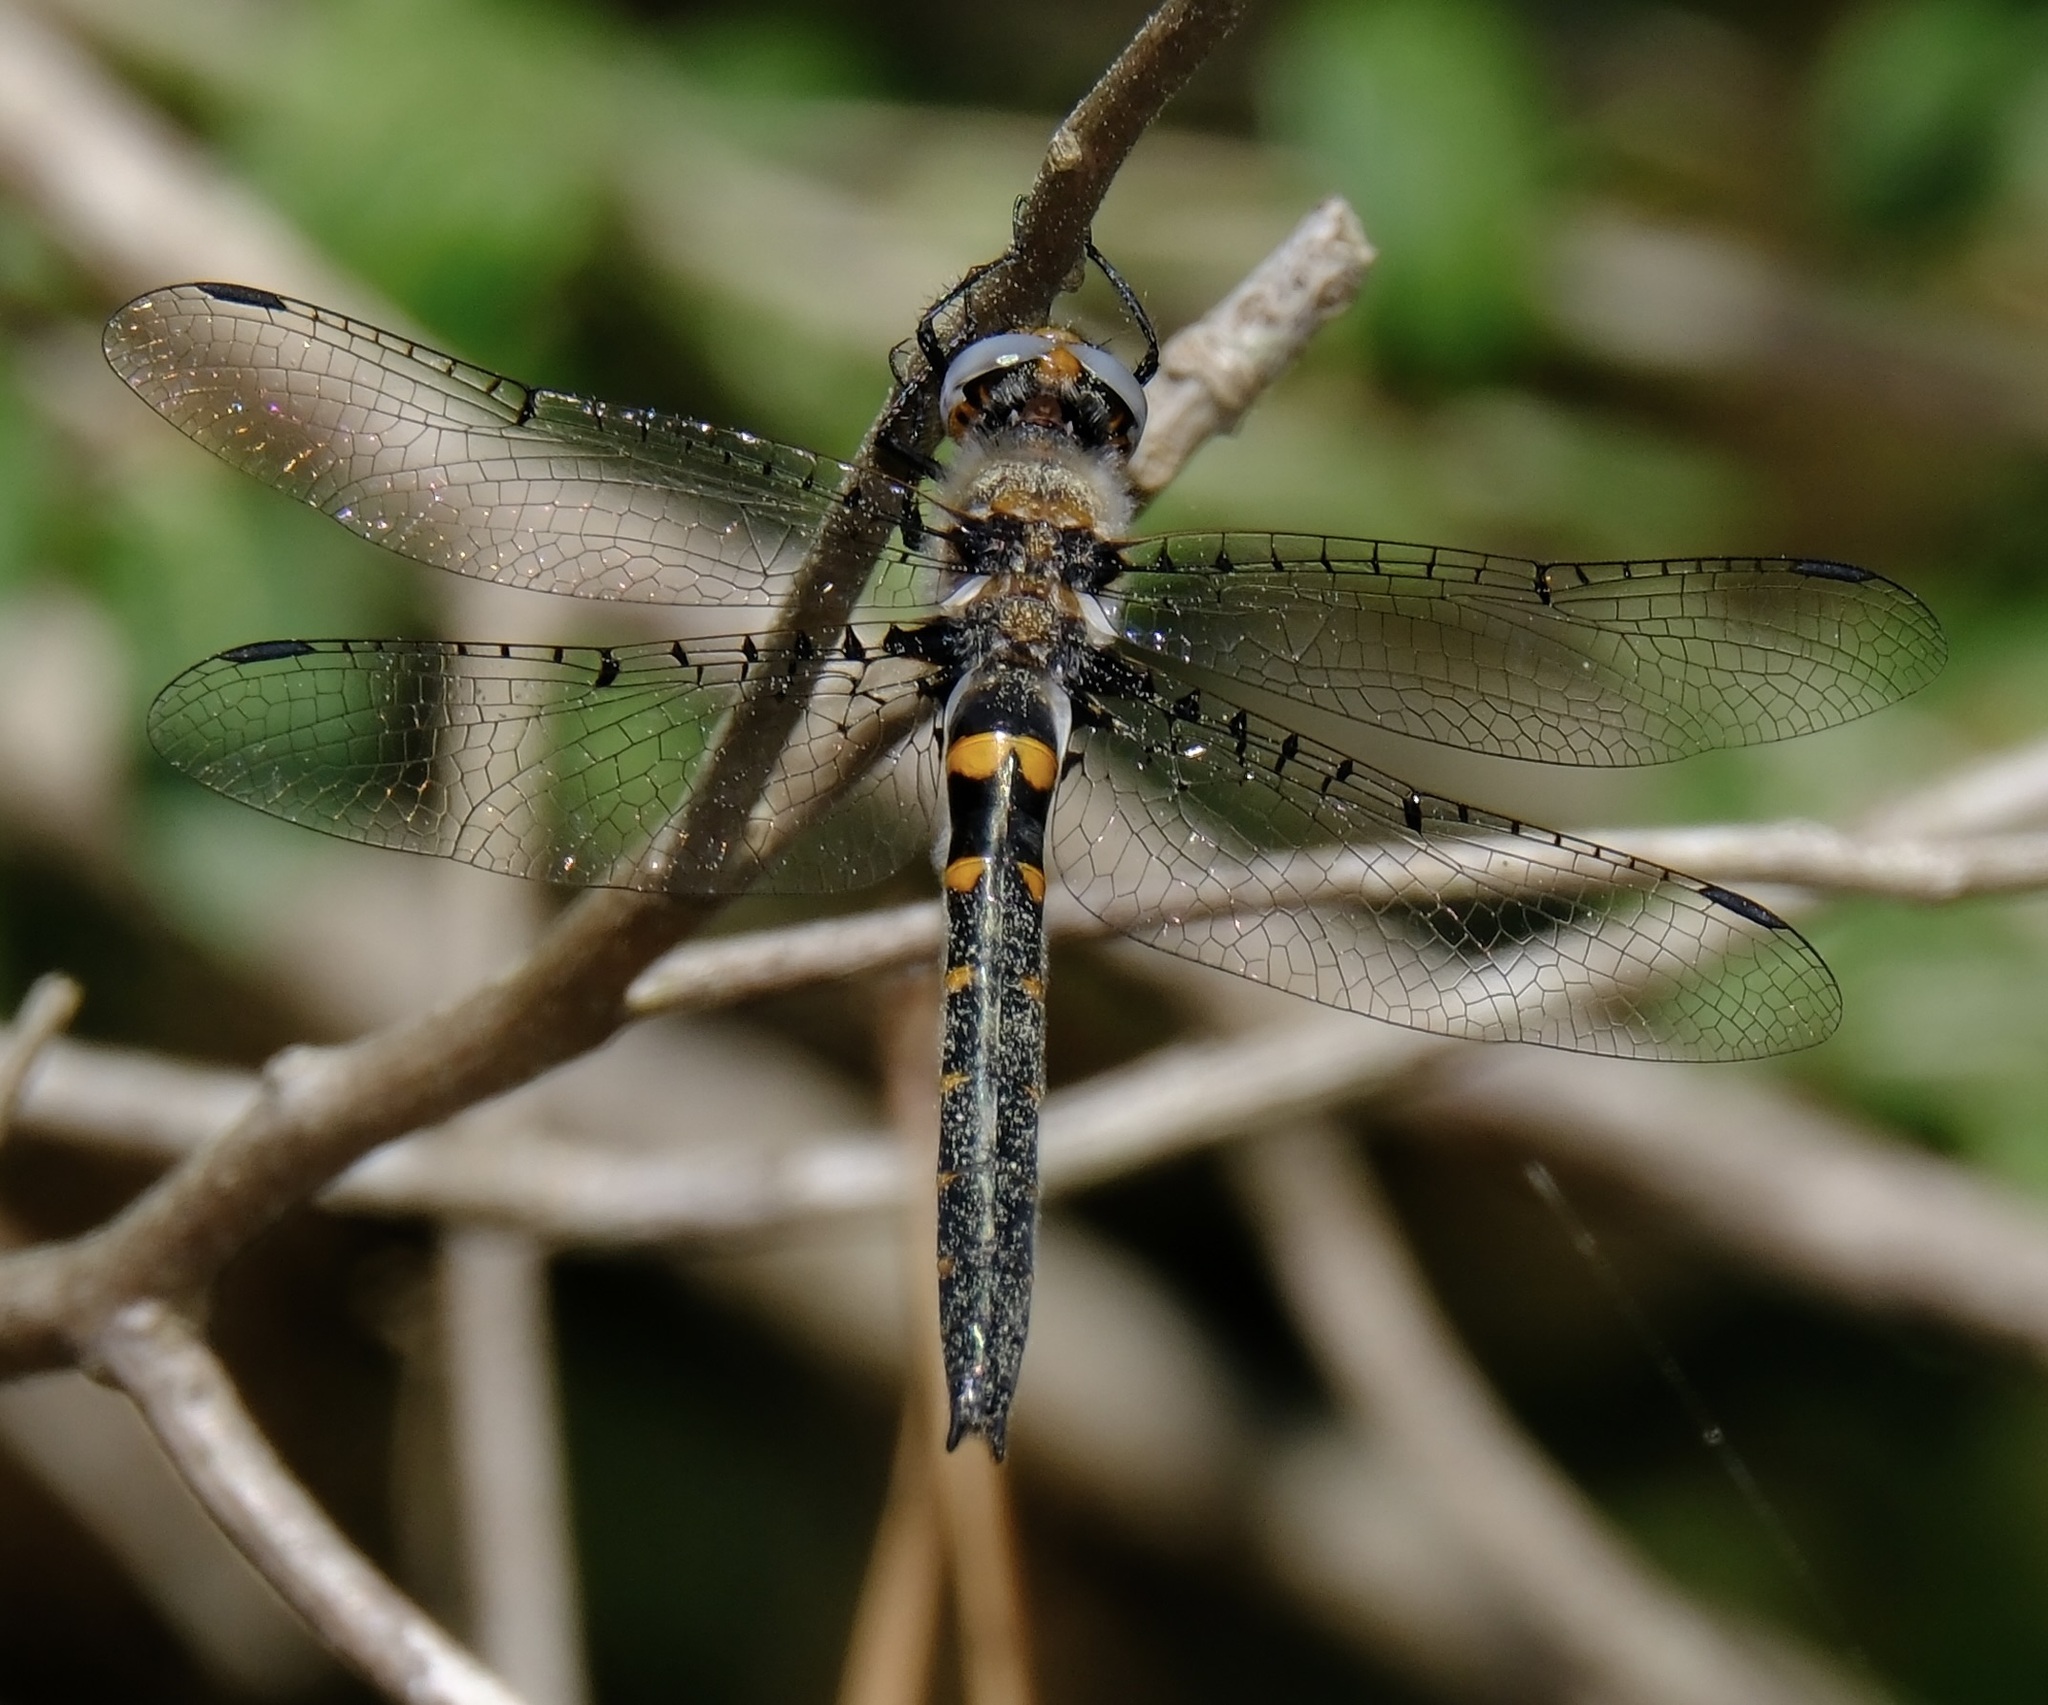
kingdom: Animalia
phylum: Arthropoda
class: Insecta
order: Odonata
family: Corduliidae
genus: Helocordulia
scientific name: Helocordulia selysii
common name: Selys's sundragon
